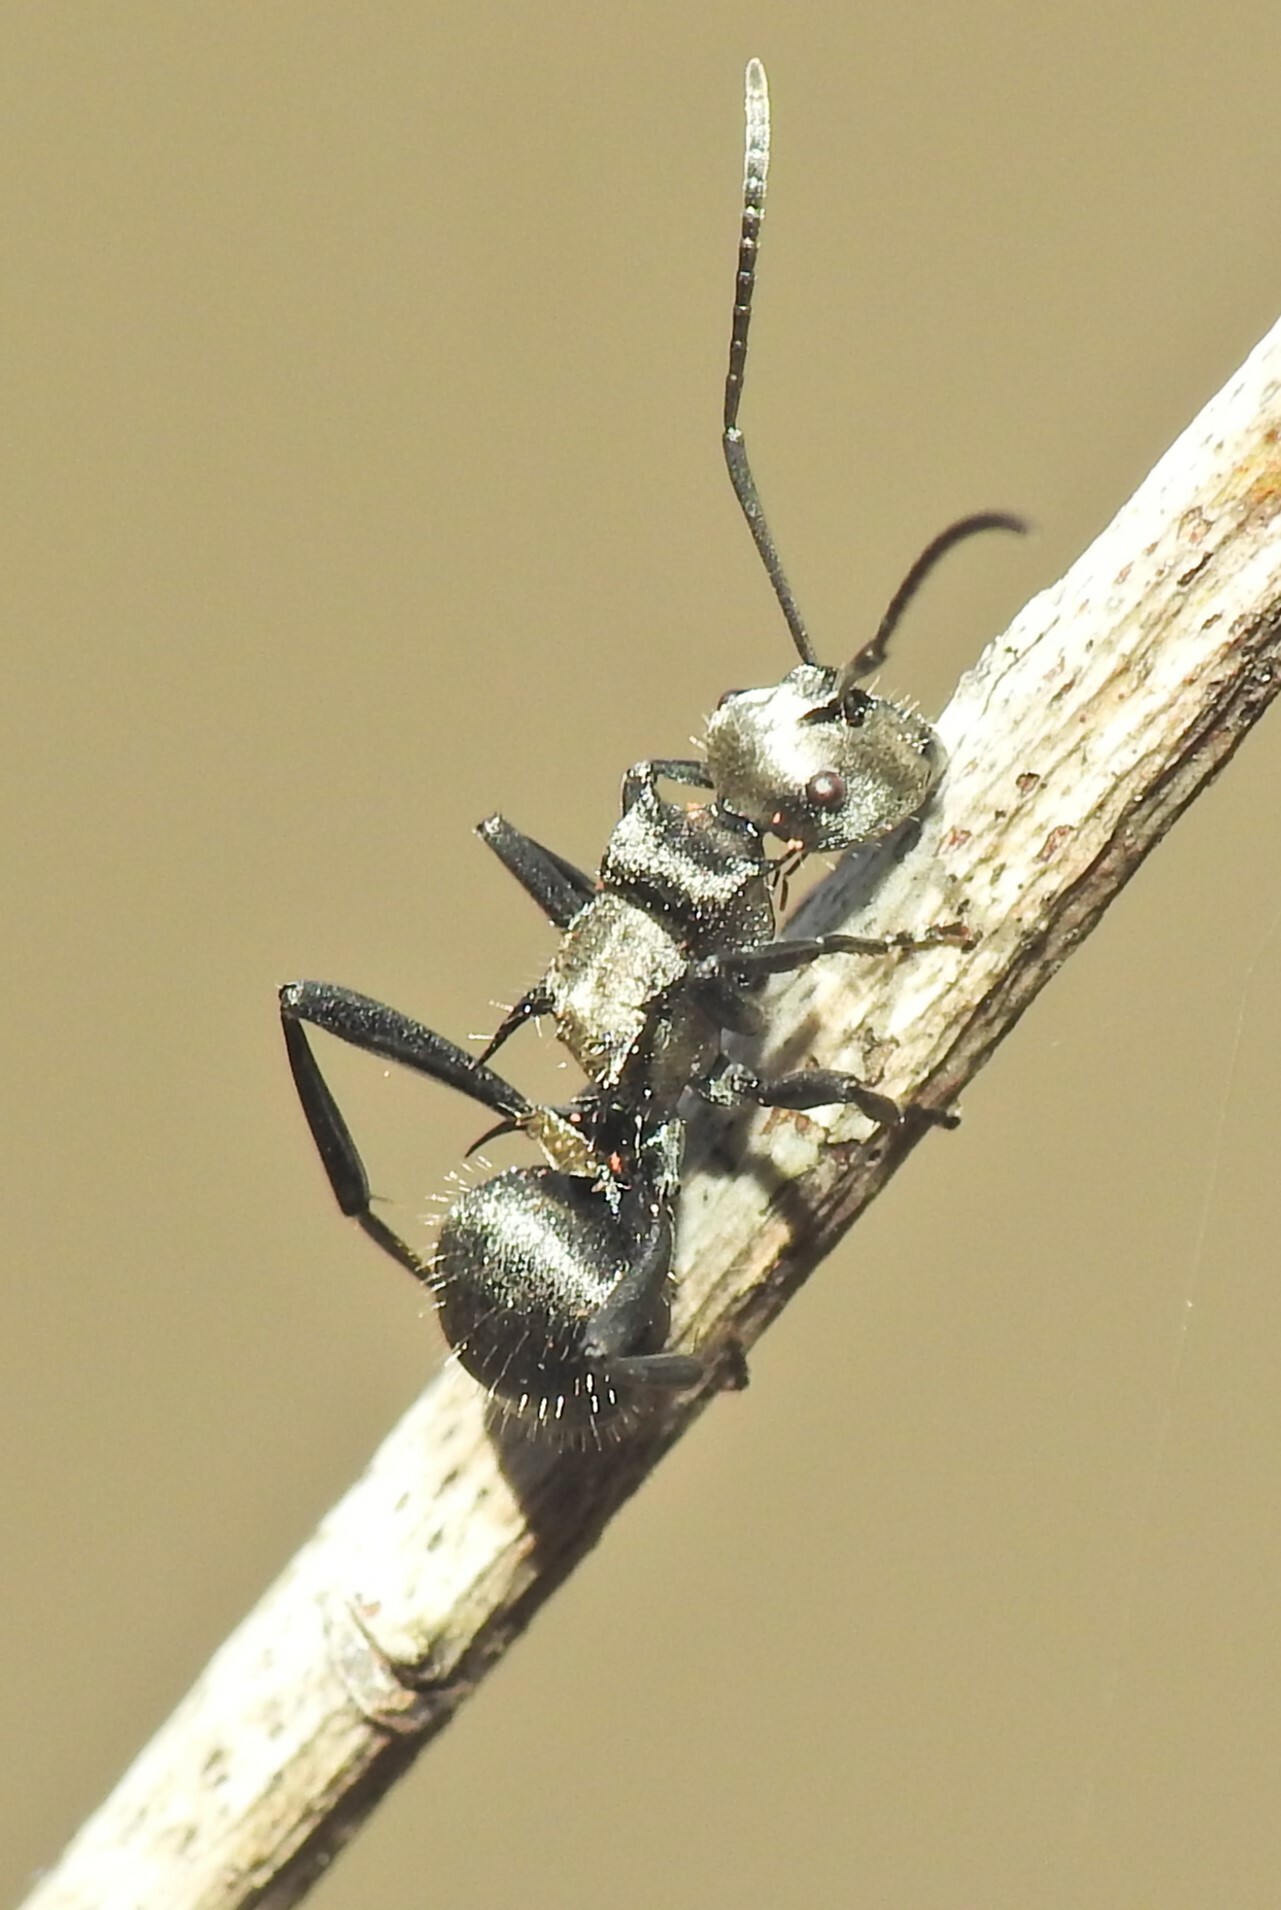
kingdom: Animalia
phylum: Arthropoda
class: Insecta
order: Hymenoptera
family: Formicidae
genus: Polyrhachis
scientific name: Polyrhachis daemeli
